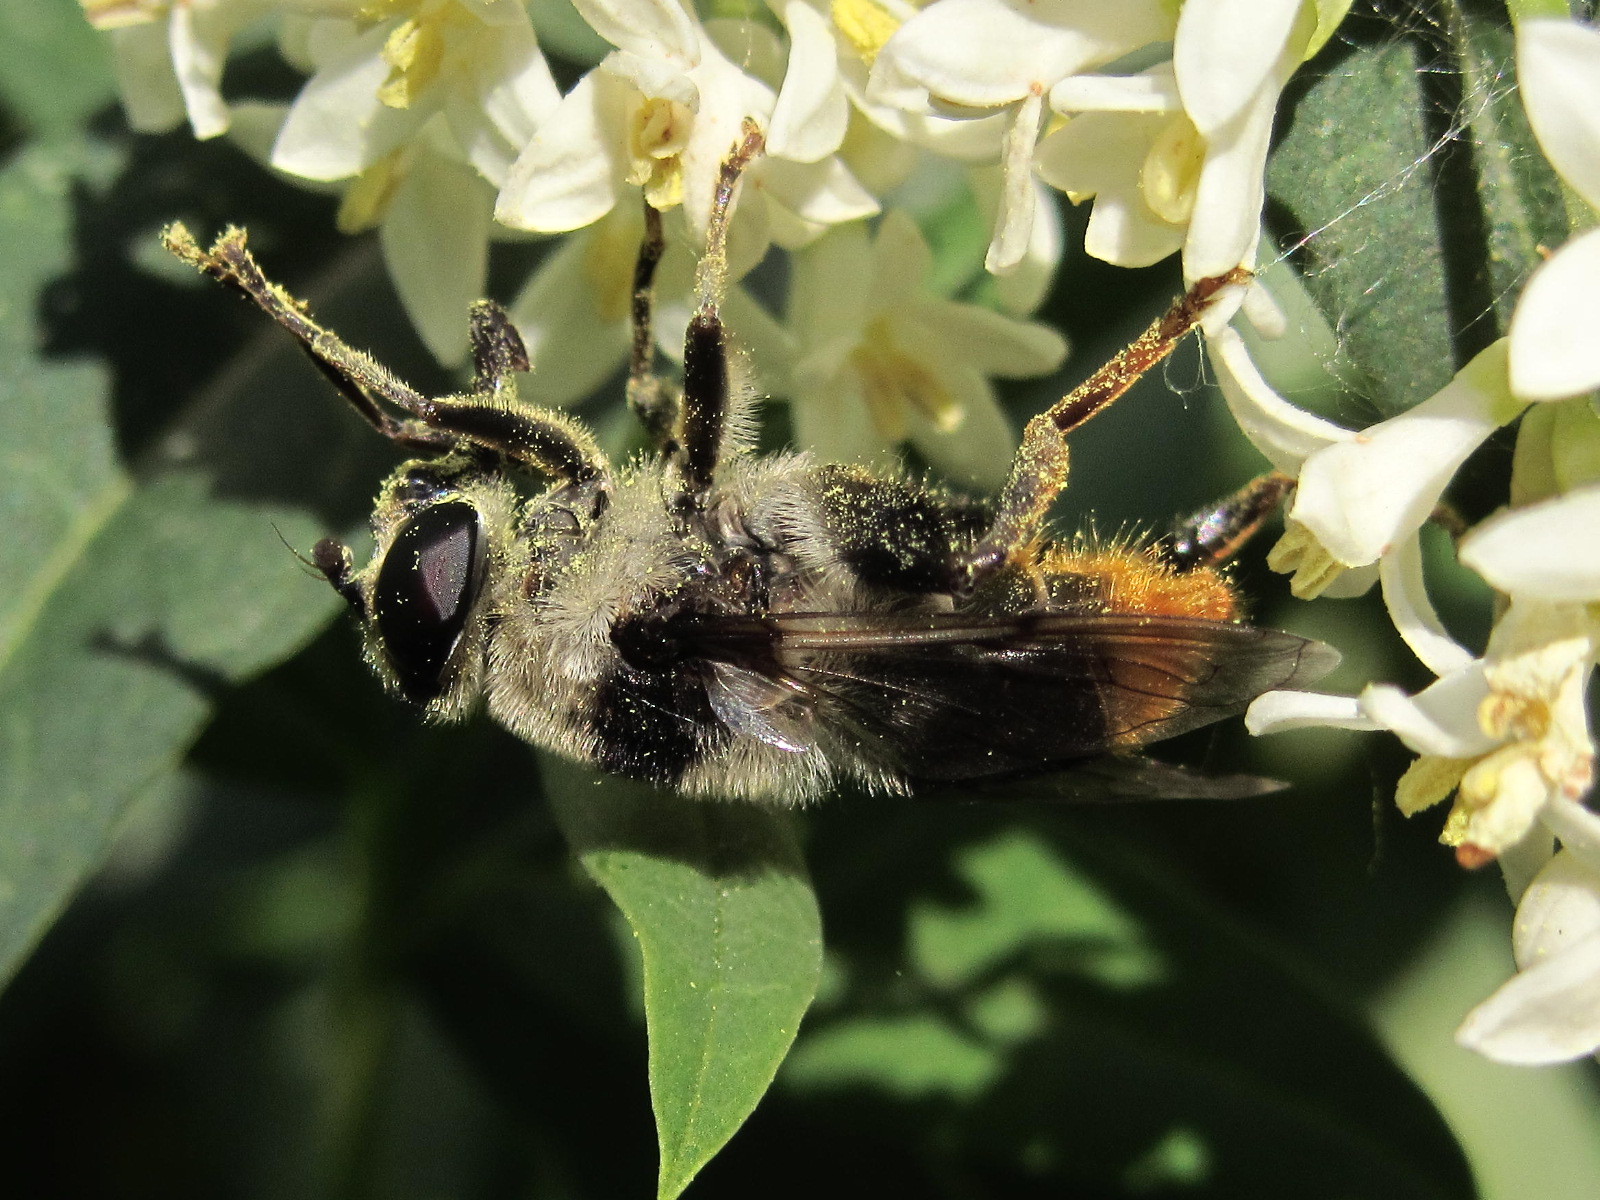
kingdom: Animalia
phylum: Arthropoda
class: Insecta
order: Diptera
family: Syrphidae
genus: Mallota
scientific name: Mallota tricolor
